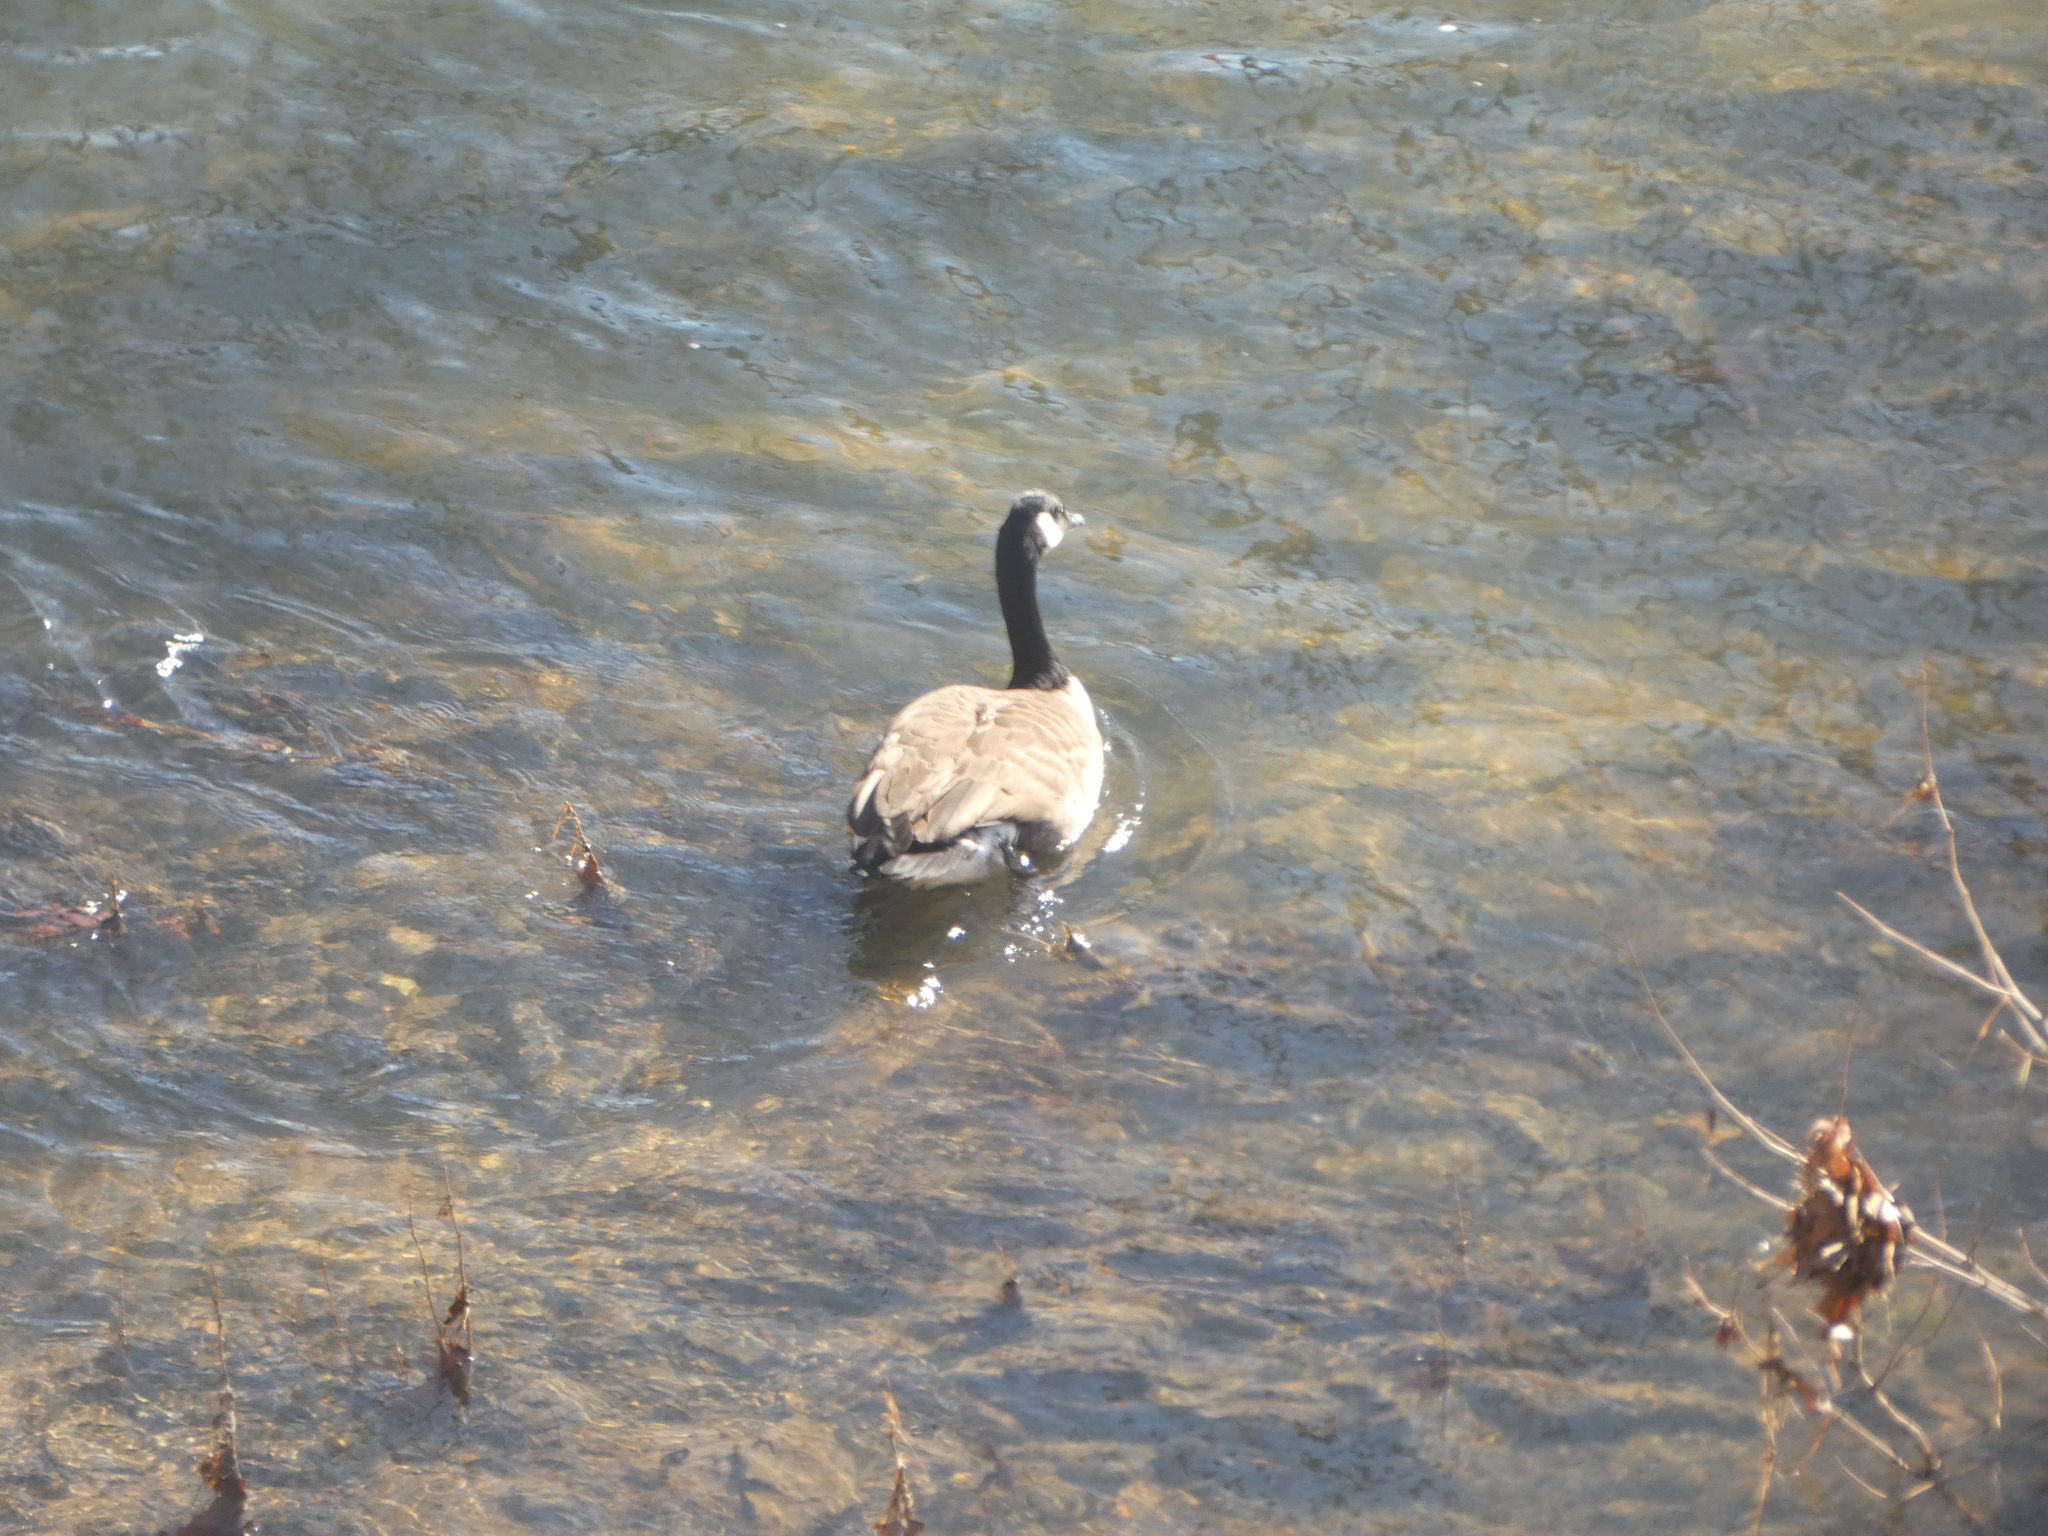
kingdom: Animalia
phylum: Chordata
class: Aves
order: Anseriformes
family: Anatidae
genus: Branta
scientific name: Branta canadensis
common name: Canada goose
